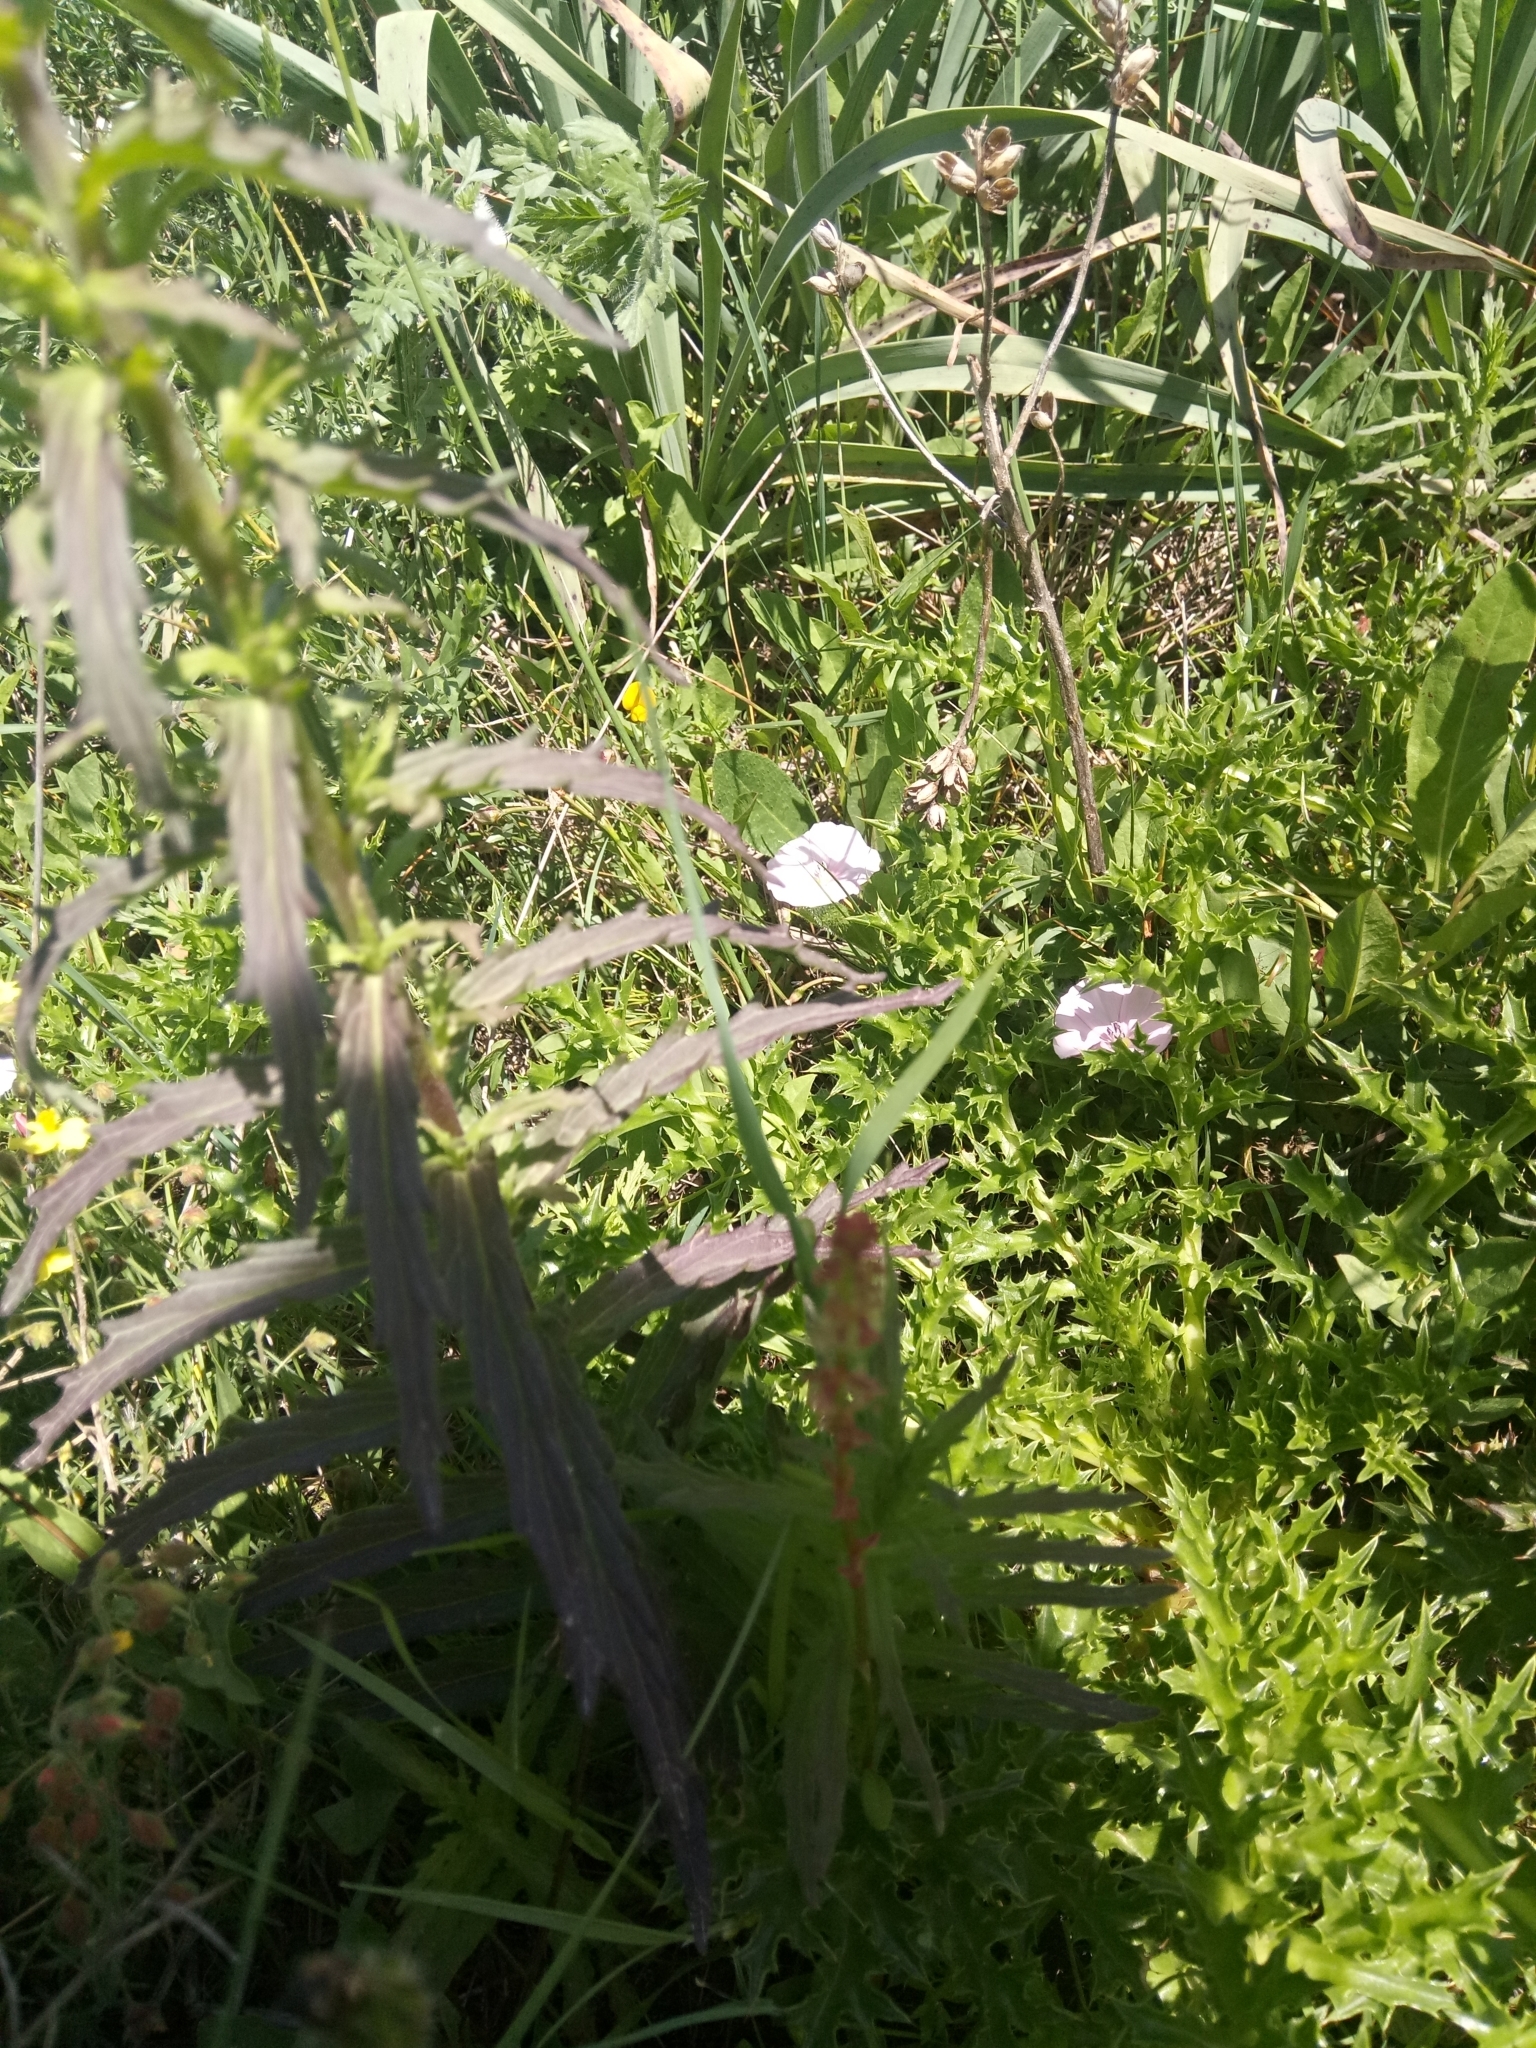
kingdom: Plantae
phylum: Tracheophyta
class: Magnoliopsida
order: Lamiales
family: Orobanchaceae
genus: Bellardia
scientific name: Bellardia trixago
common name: Mediterranean lineseed
